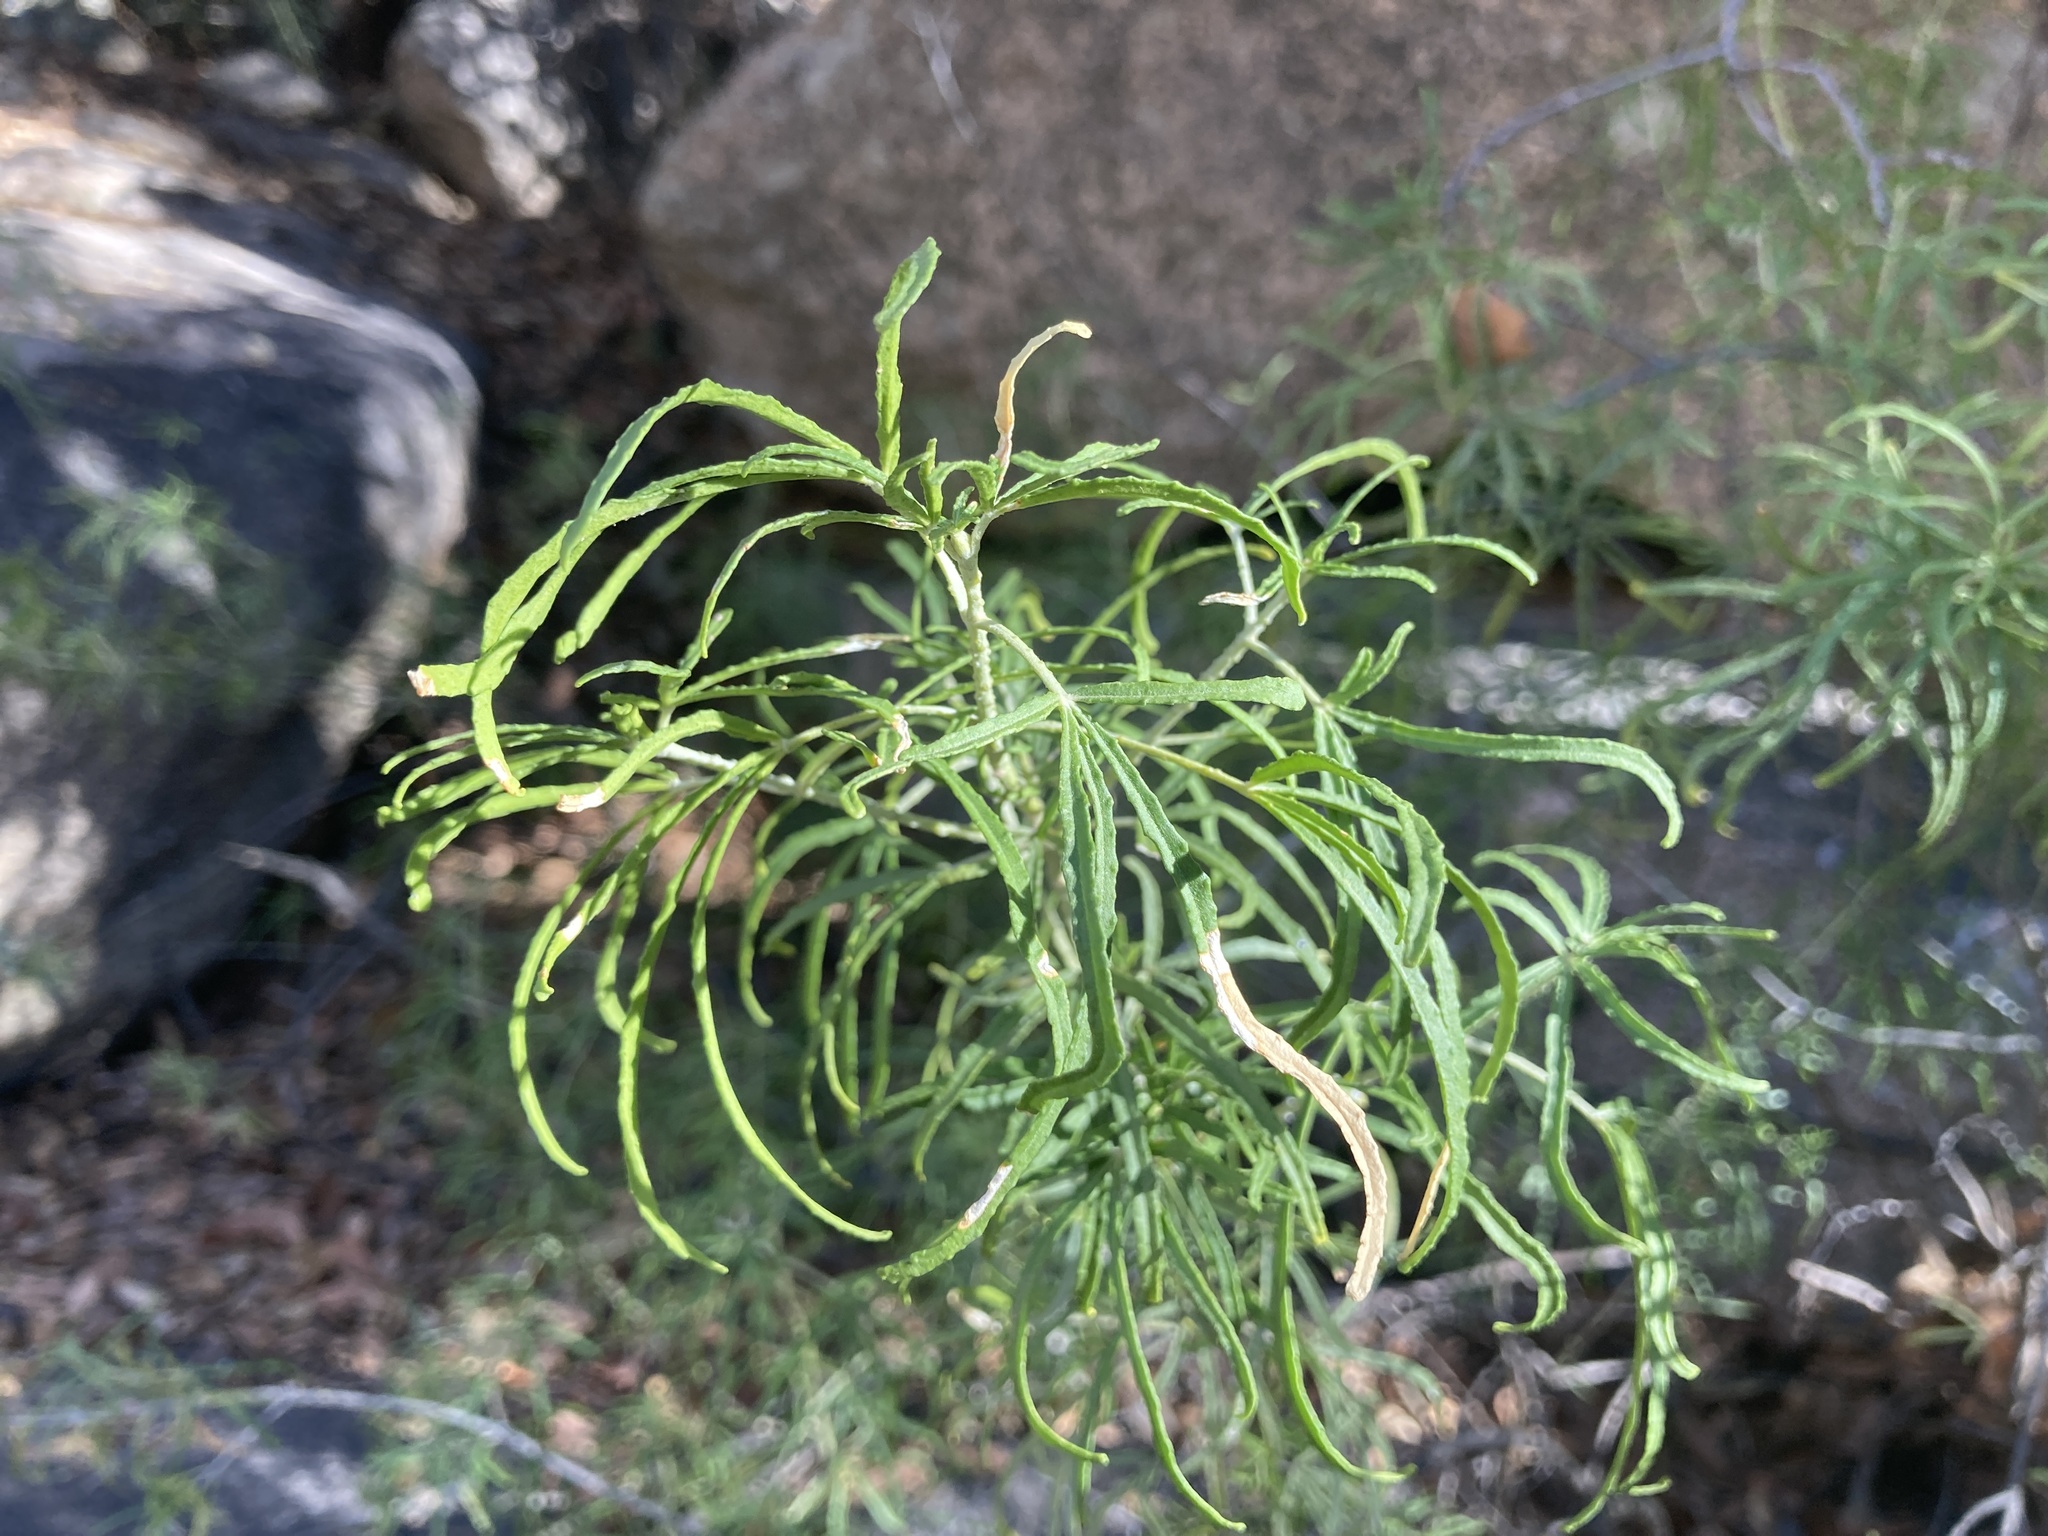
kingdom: Plantae
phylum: Tracheophyta
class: Magnoliopsida
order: Sapindales
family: Rutaceae
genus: Choisya
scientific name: Choisya dumosa
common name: Mexican-orange
